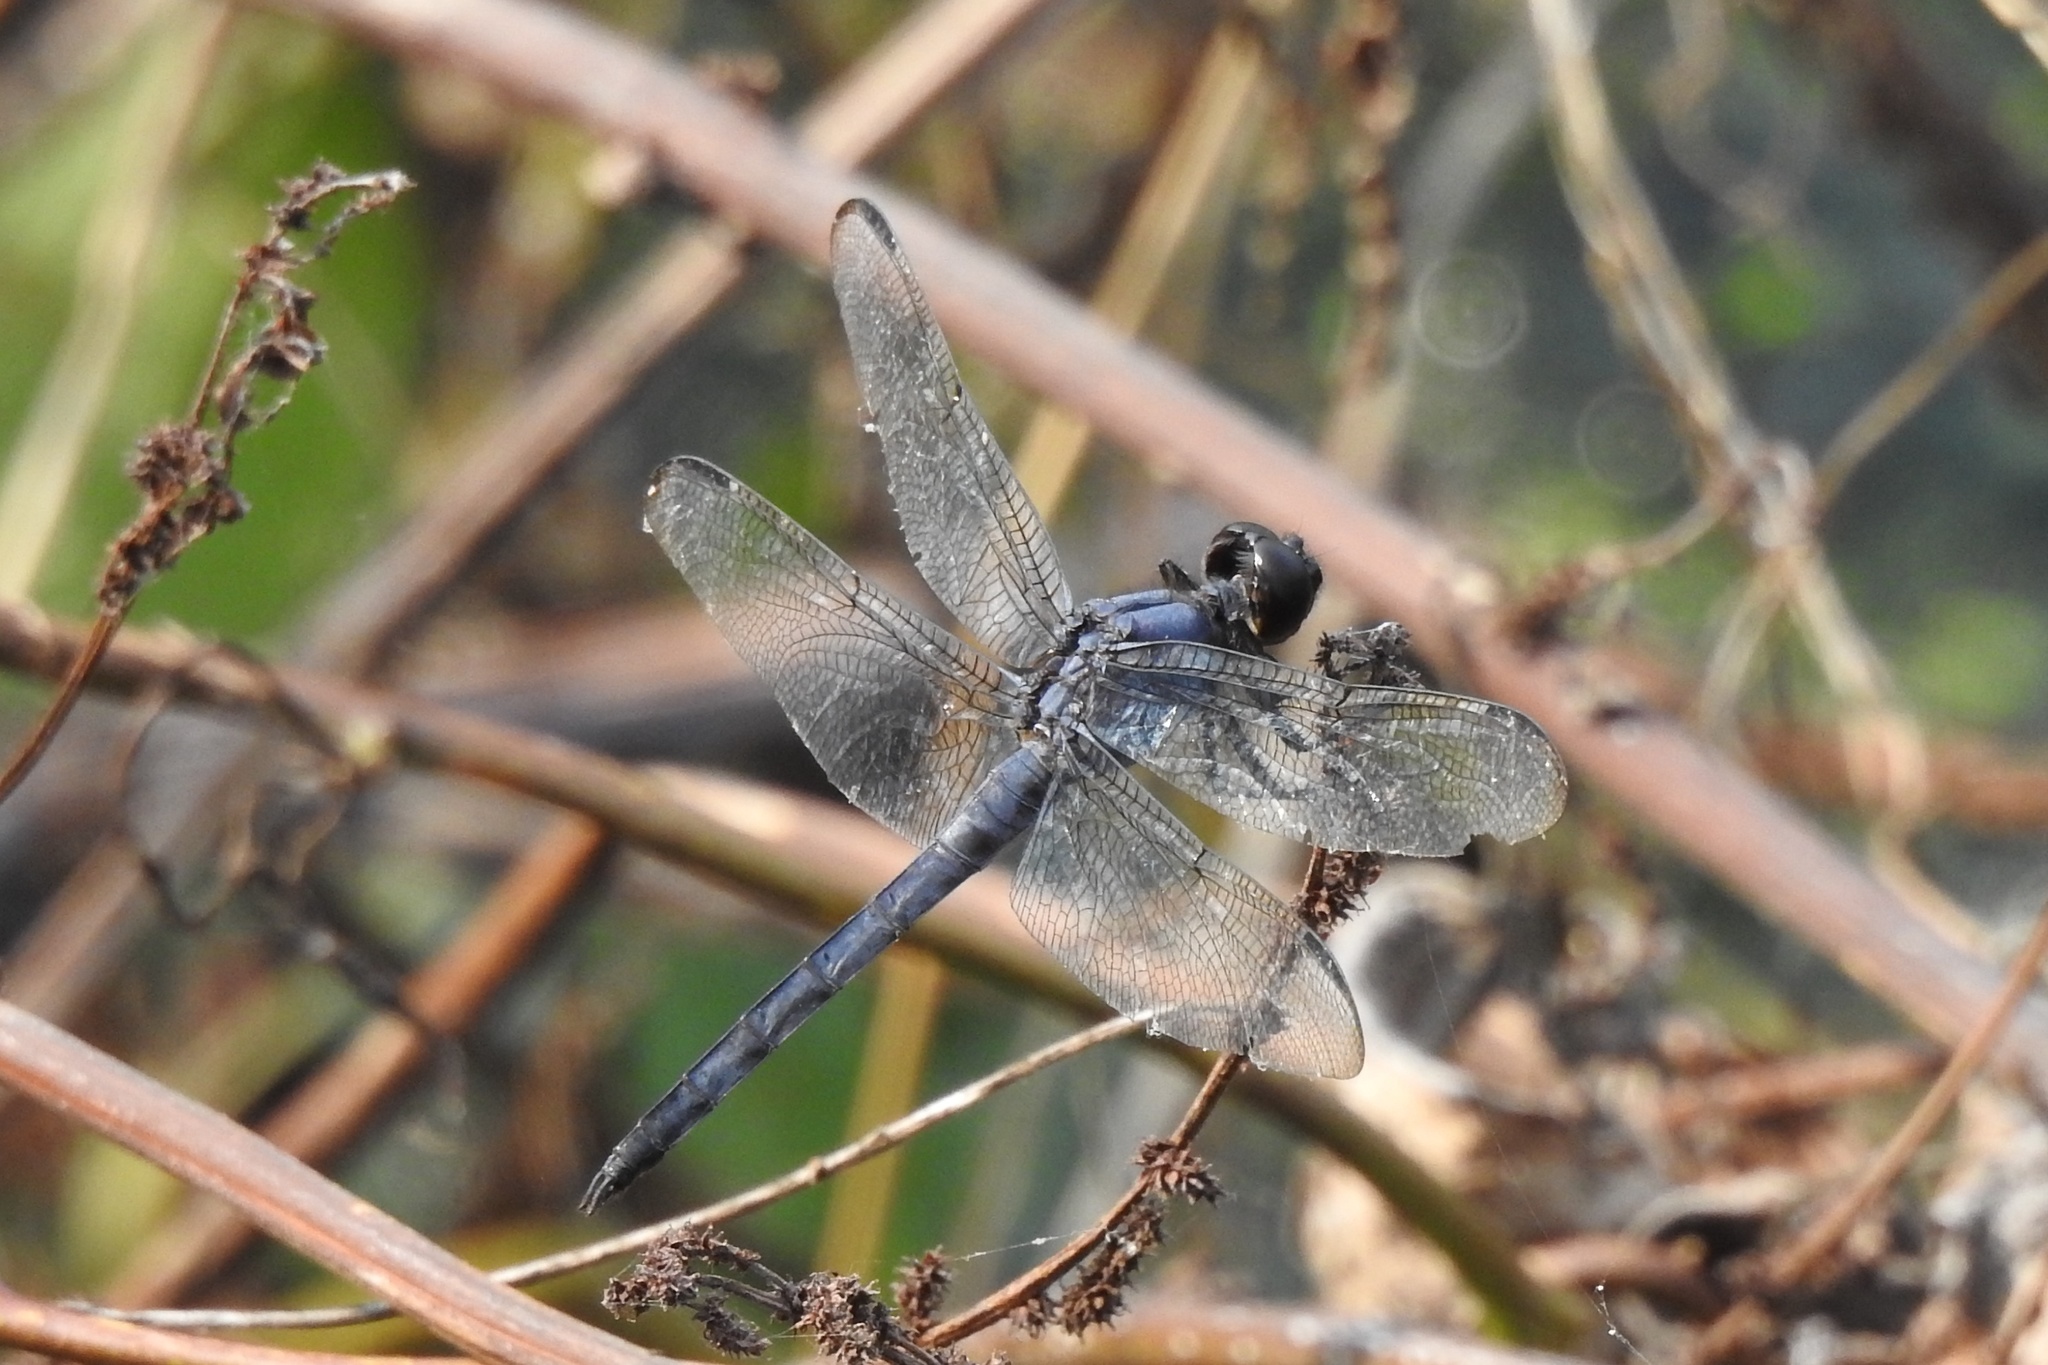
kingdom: Animalia
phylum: Arthropoda
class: Insecta
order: Odonata
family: Libellulidae
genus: Libellula
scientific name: Libellula incesta
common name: Slaty skimmer
